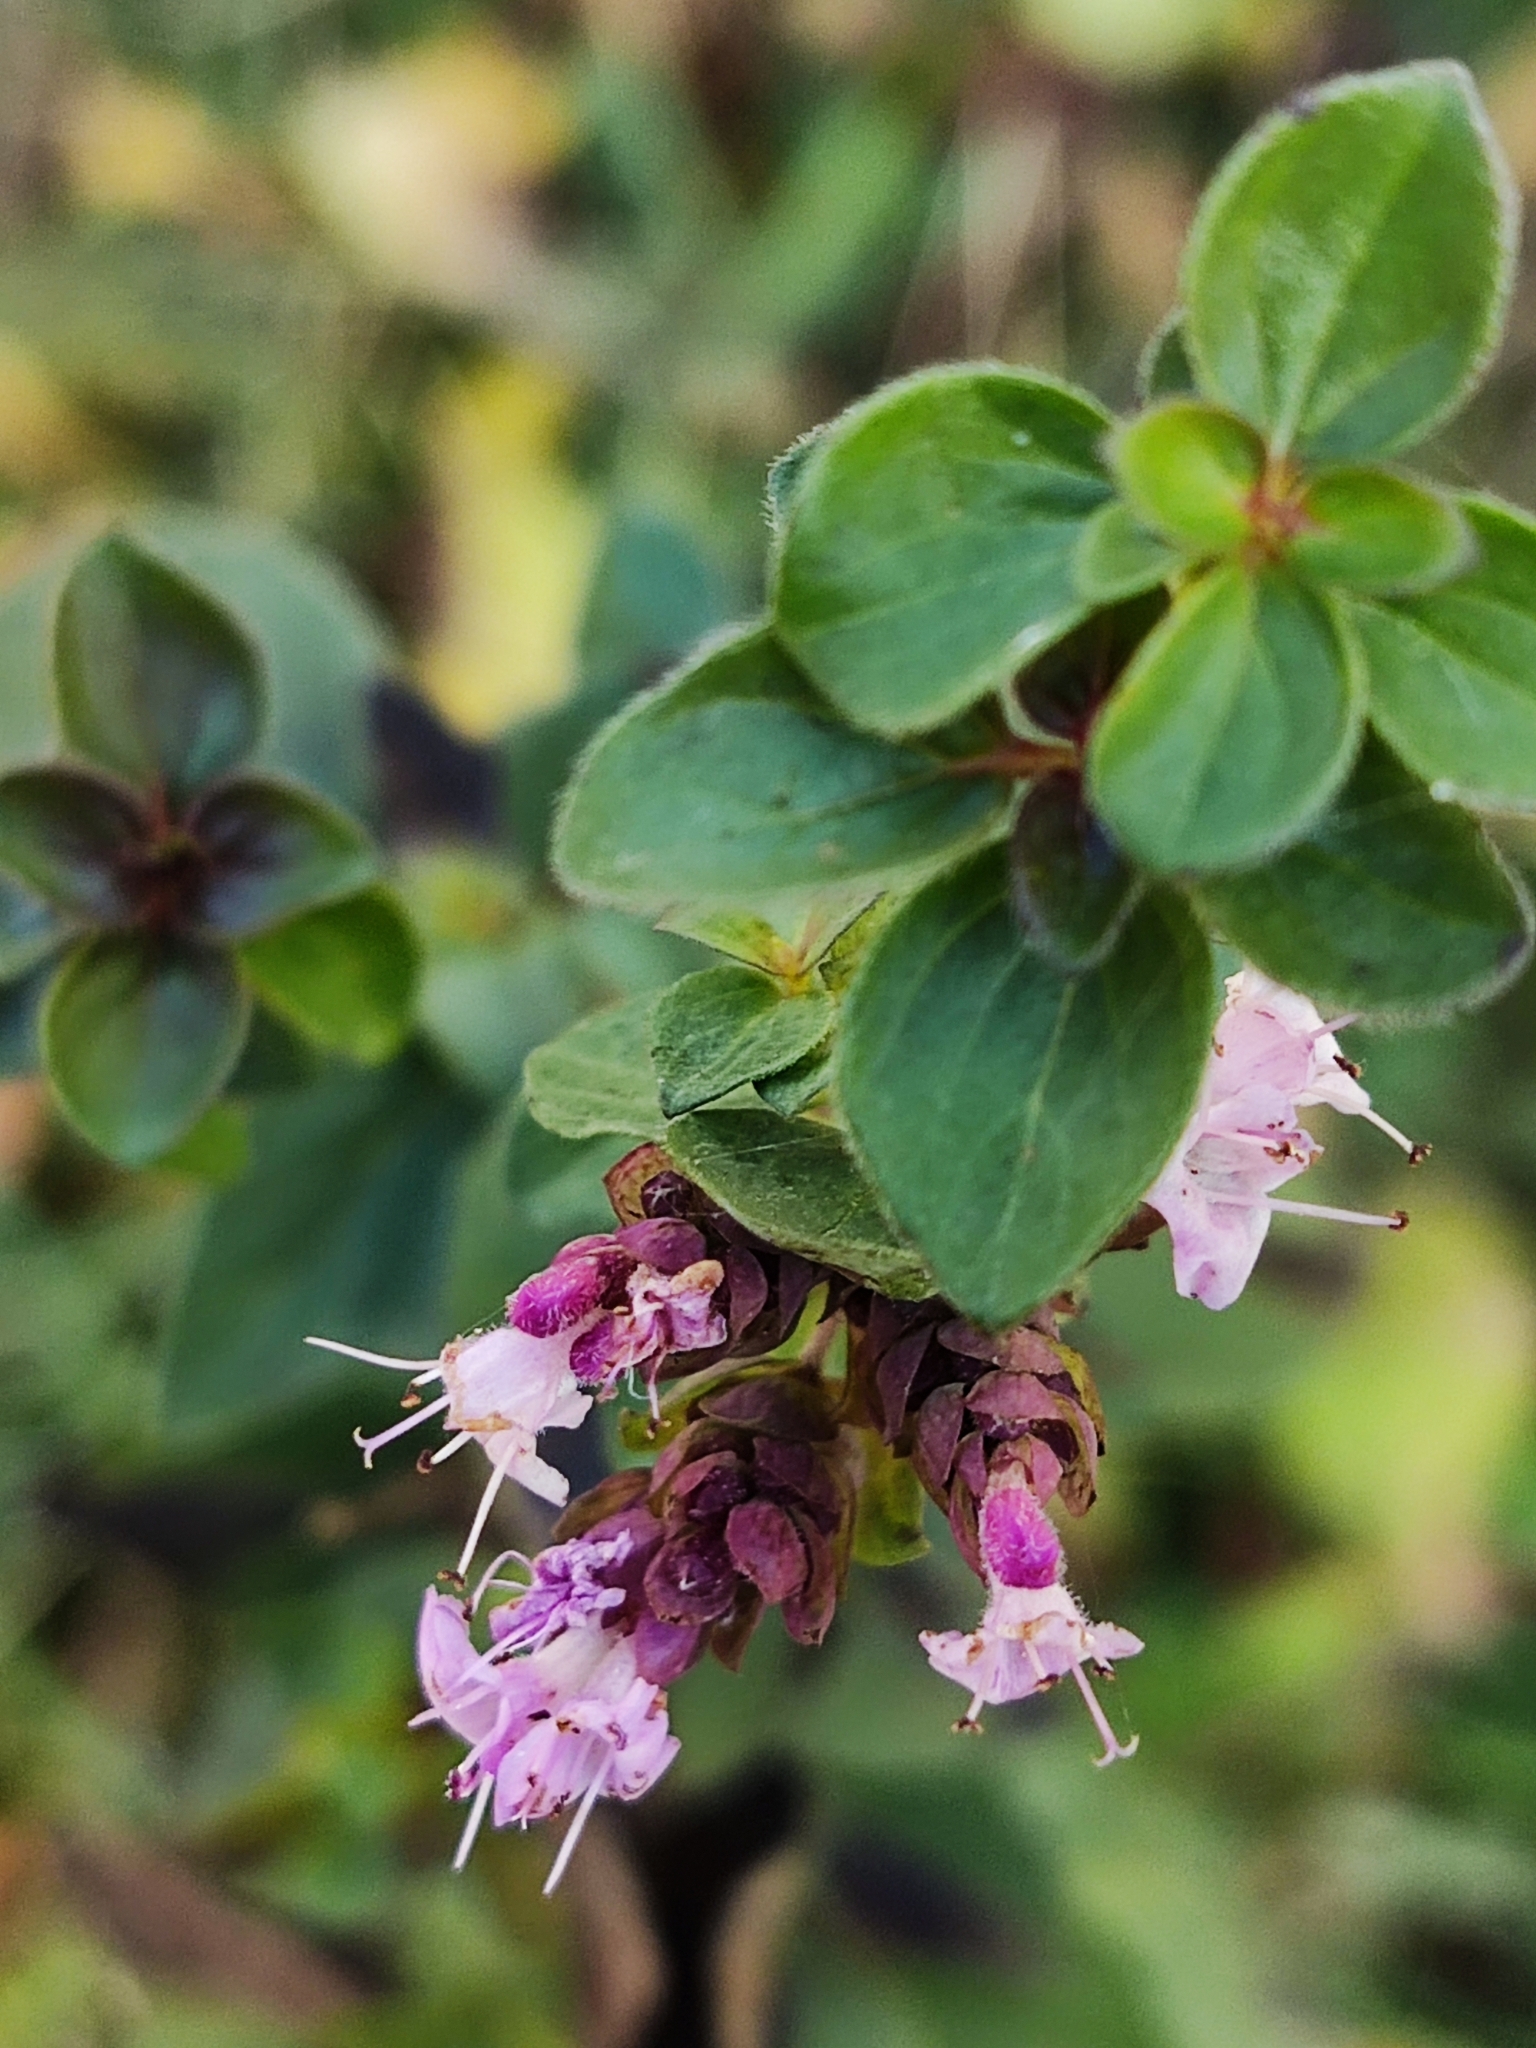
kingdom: Plantae
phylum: Tracheophyta
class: Magnoliopsida
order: Lamiales
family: Lamiaceae
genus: Origanum
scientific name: Origanum vulgare
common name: Wild marjoram
